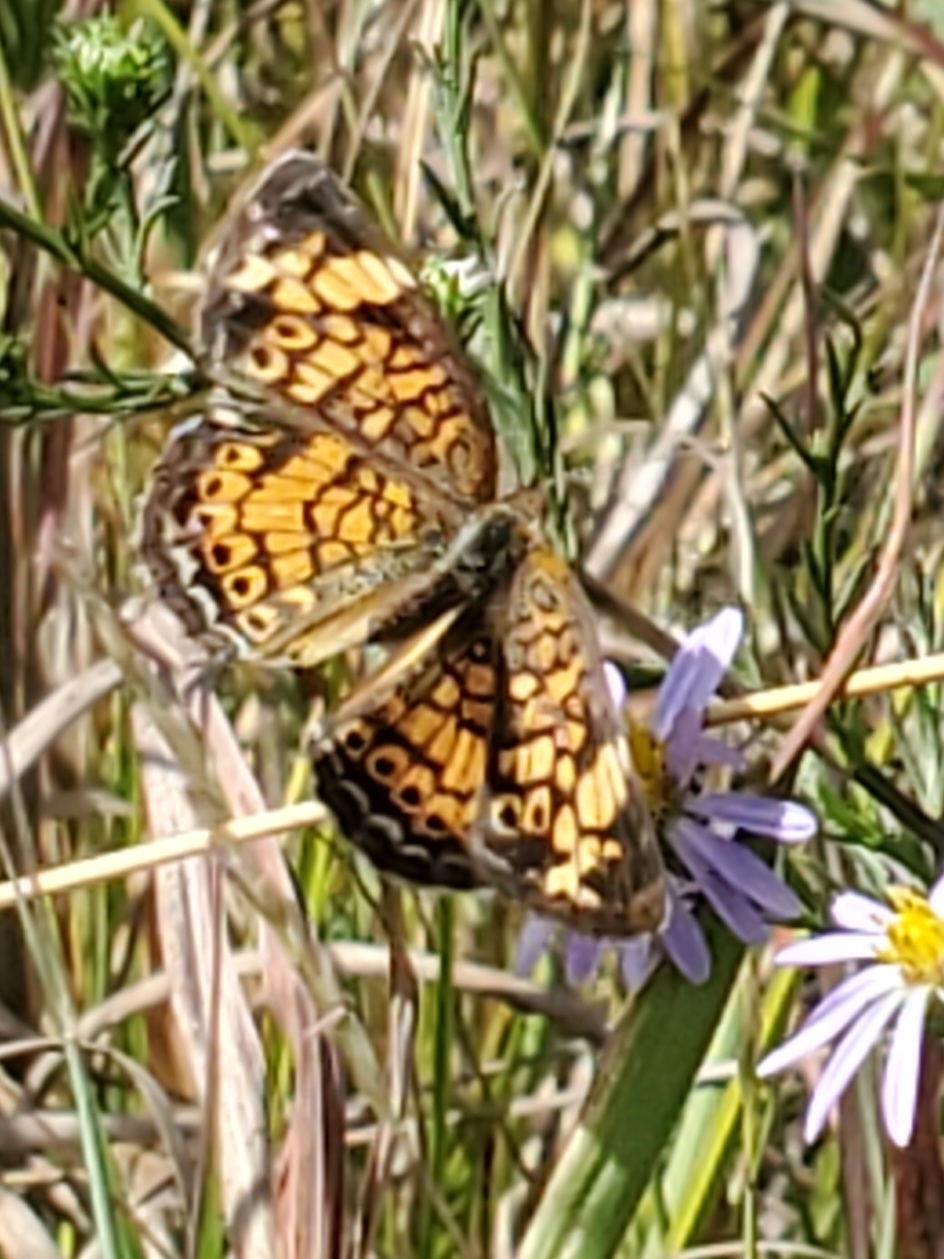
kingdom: Animalia
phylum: Arthropoda
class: Insecta
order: Lepidoptera
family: Nymphalidae
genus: Phyciodes
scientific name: Phyciodes tharos
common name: Pearl crescent
